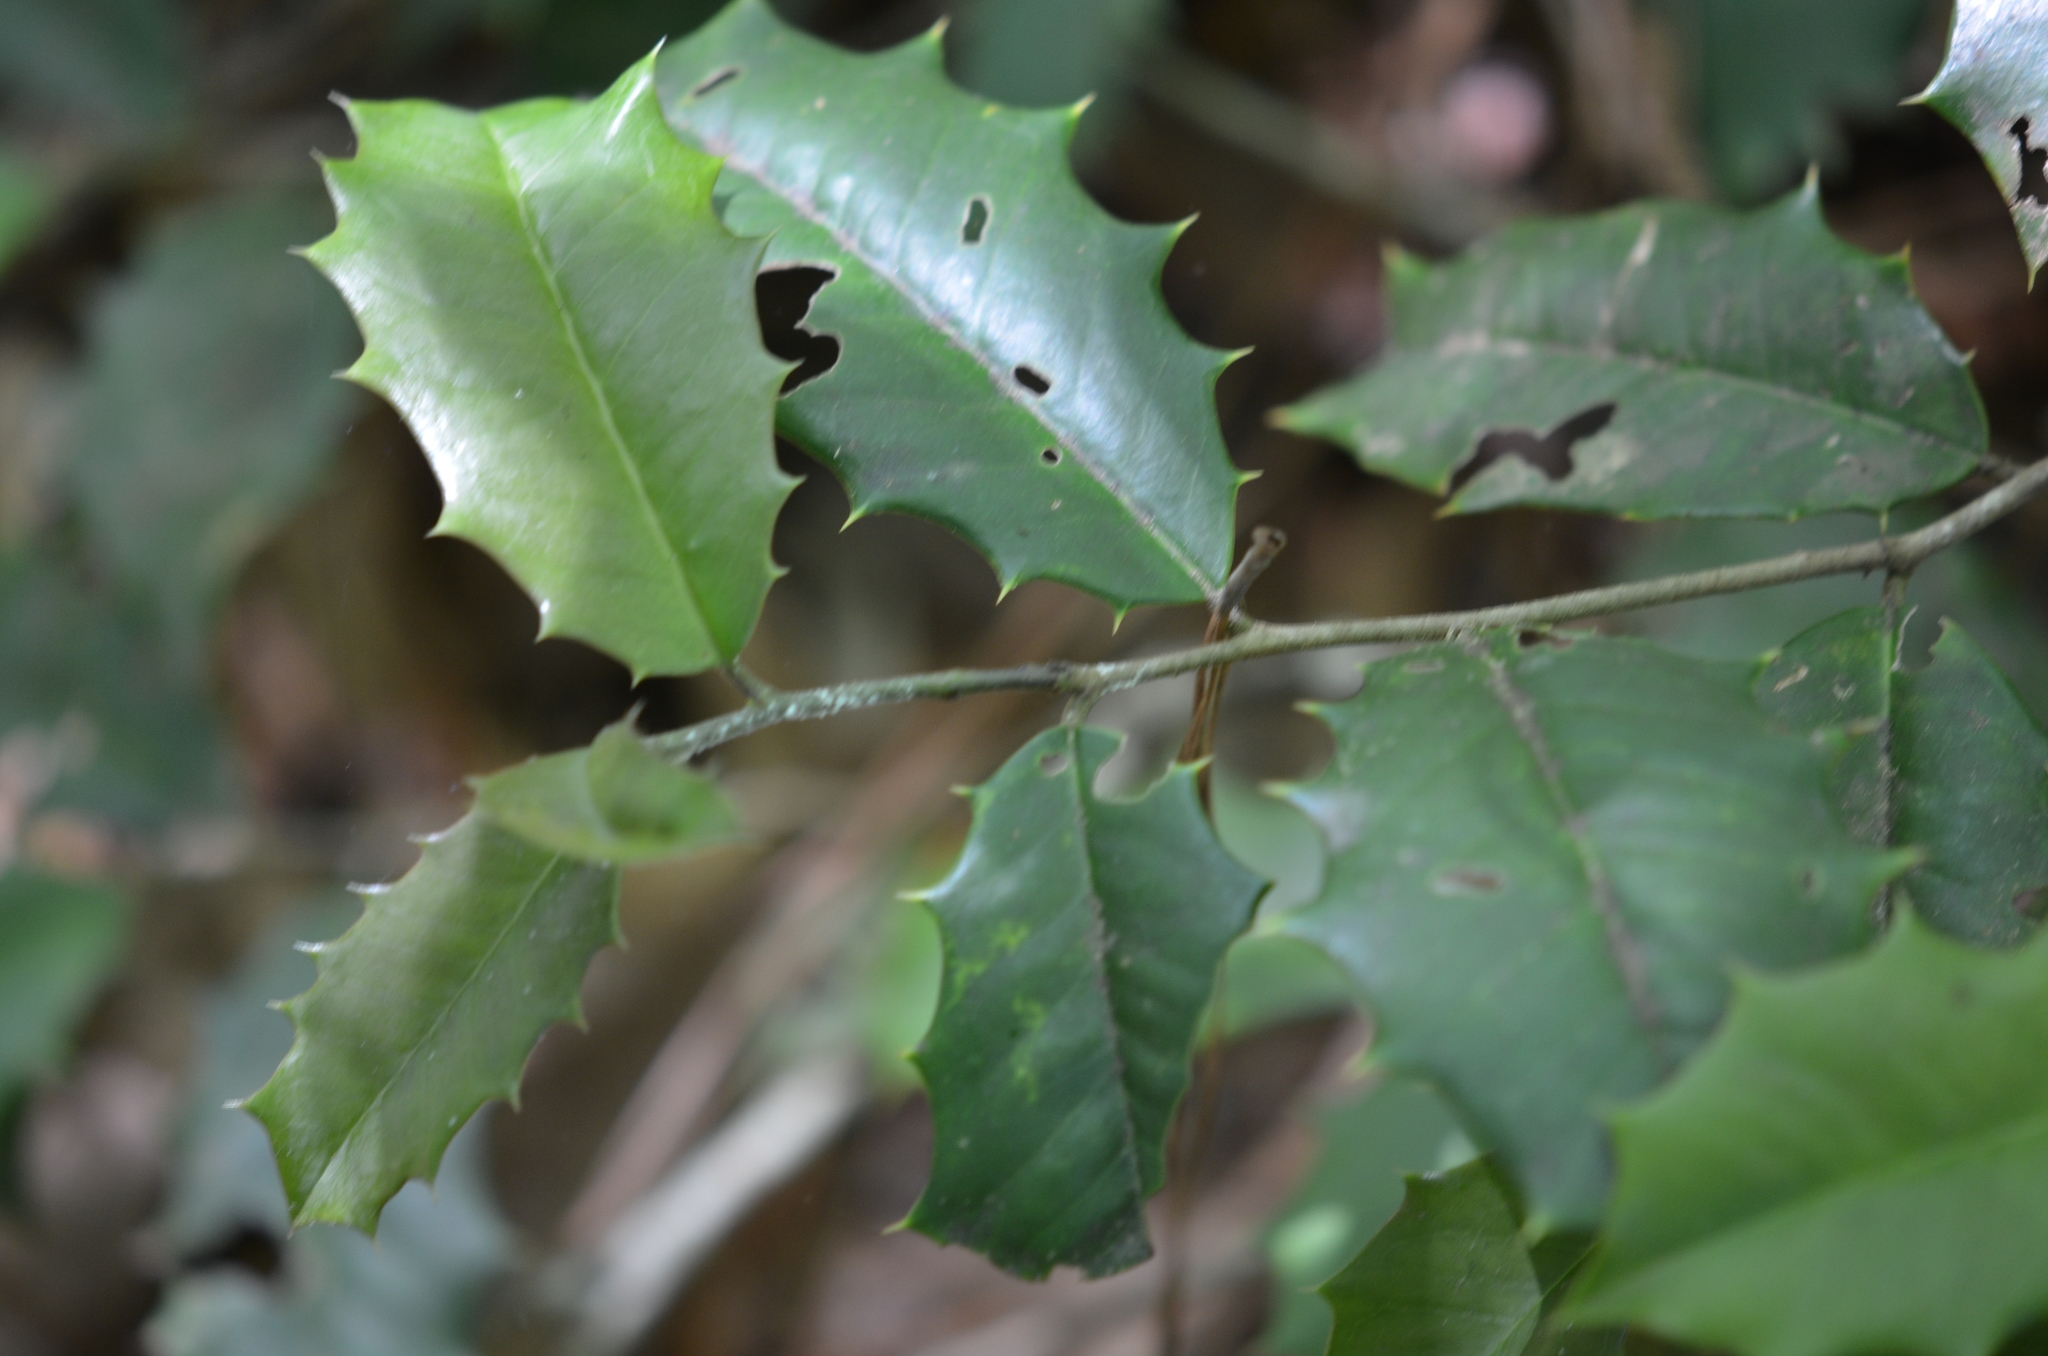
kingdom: Plantae
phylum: Tracheophyta
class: Magnoliopsida
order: Aquifoliales
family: Aquifoliaceae
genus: Ilex
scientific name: Ilex opaca
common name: American holly
